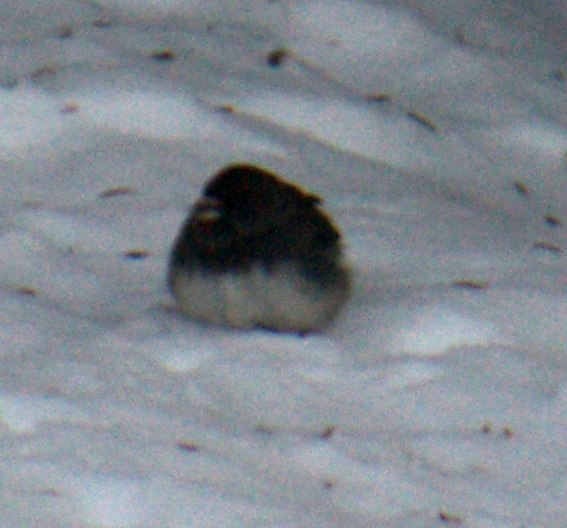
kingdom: Animalia
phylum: Chordata
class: Aves
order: Passeriformes
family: Passerellidae
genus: Junco
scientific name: Junco hyemalis
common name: Dark-eyed junco
